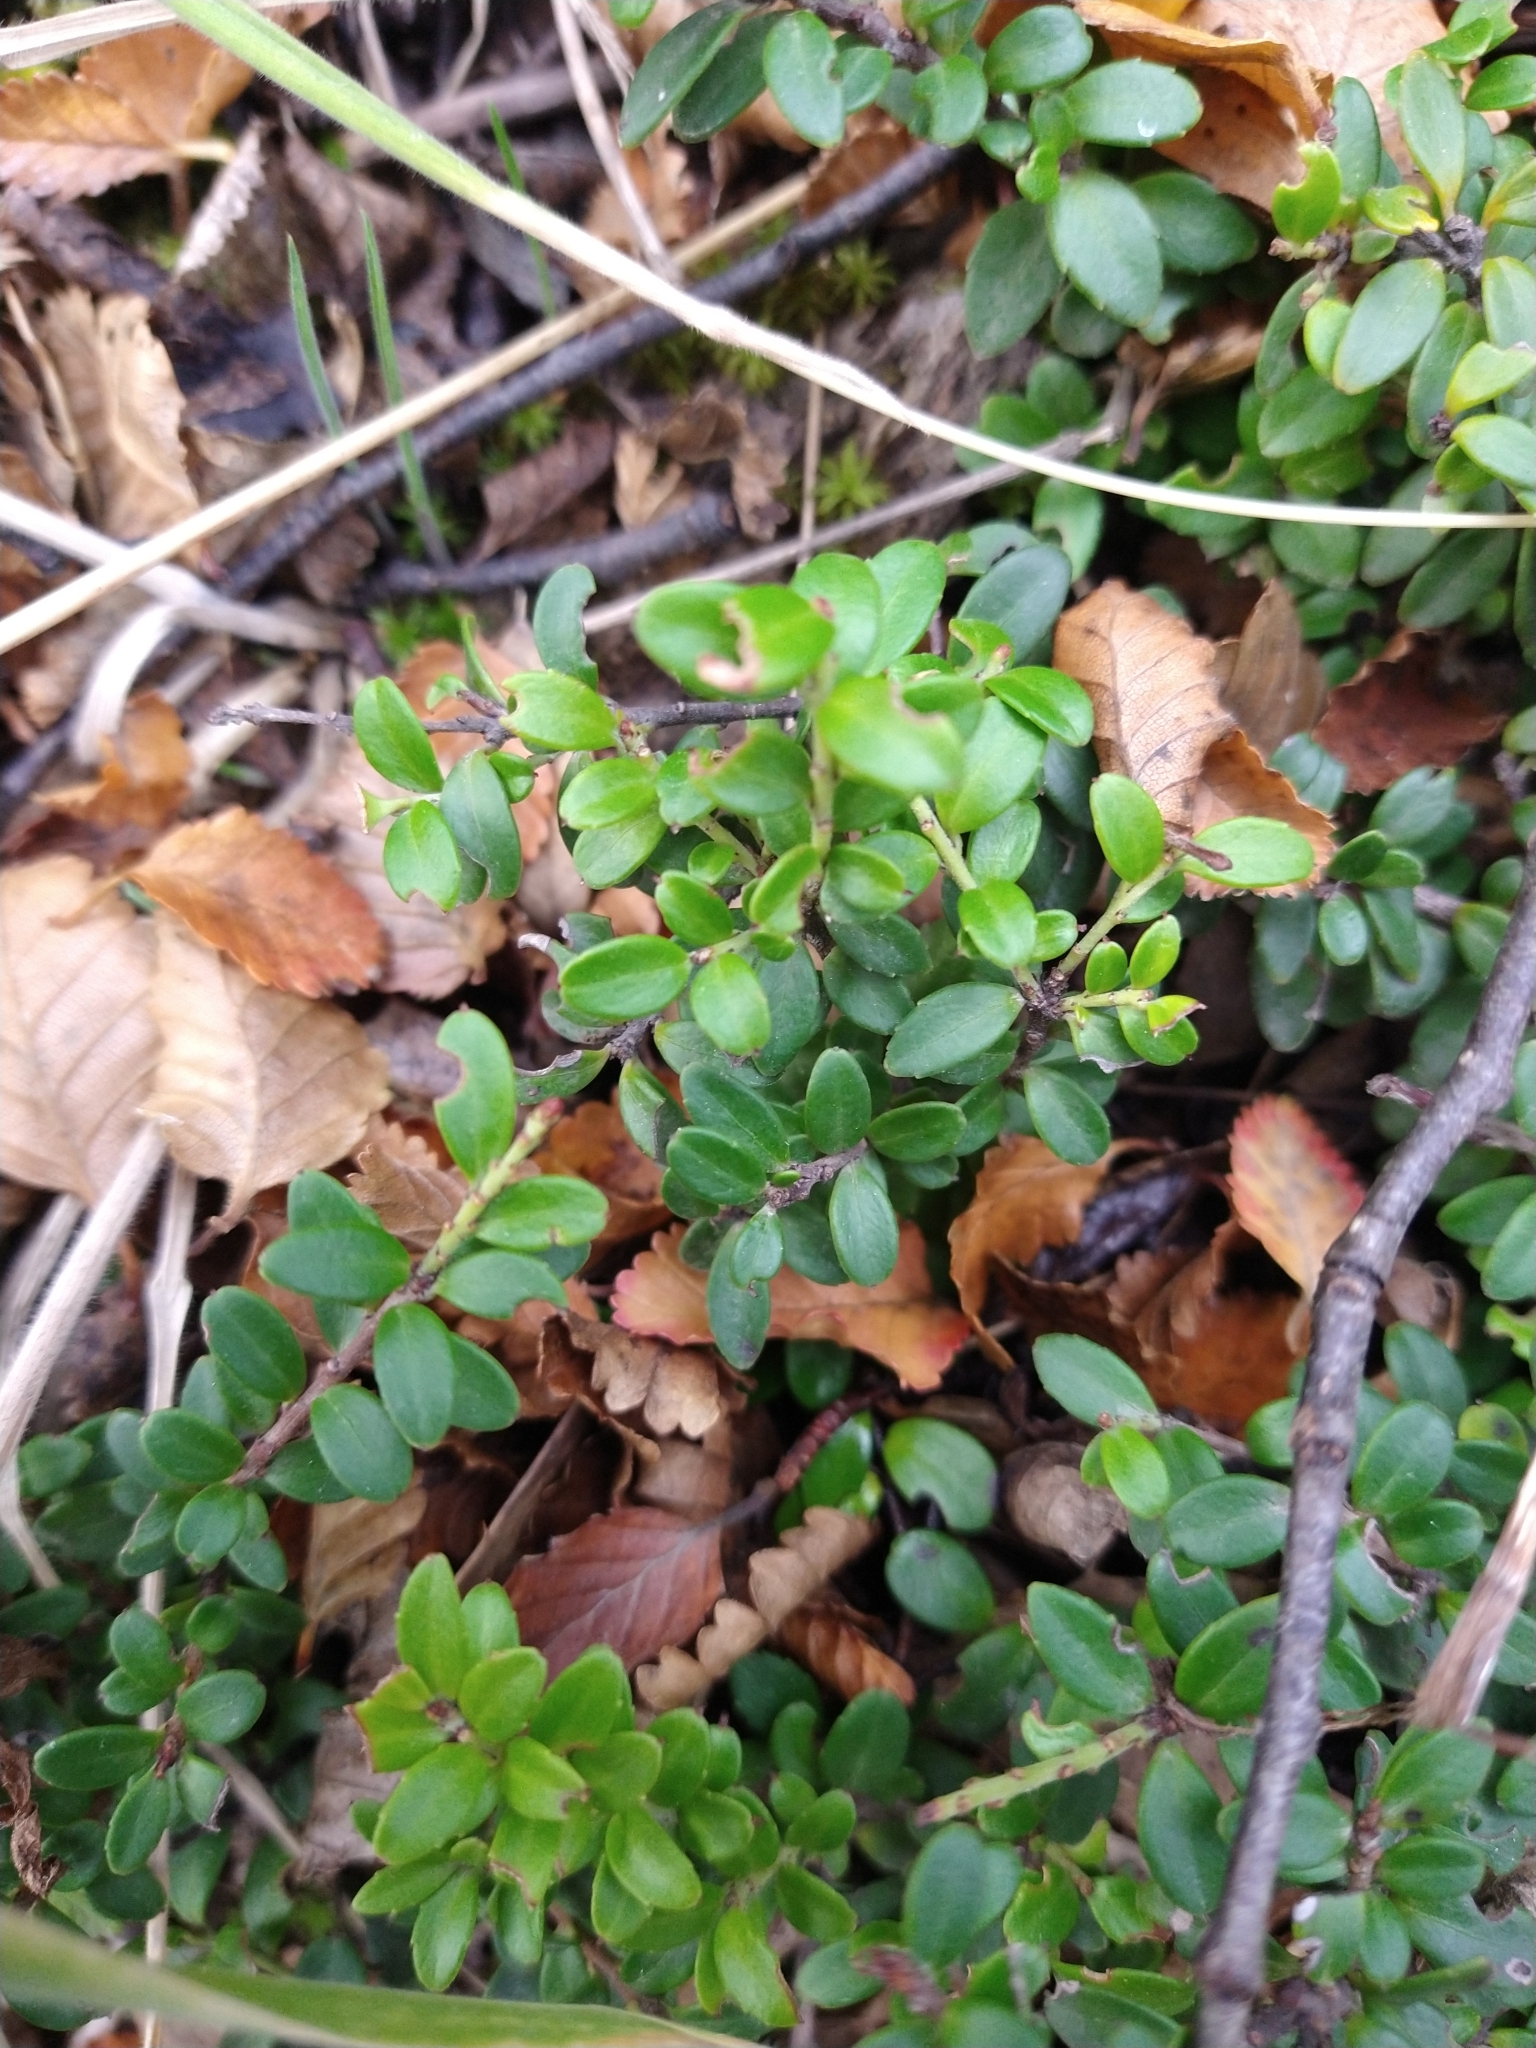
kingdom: Plantae
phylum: Tracheophyta
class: Magnoliopsida
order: Celastrales
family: Celastraceae
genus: Maytenus
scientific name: Maytenus disticha
